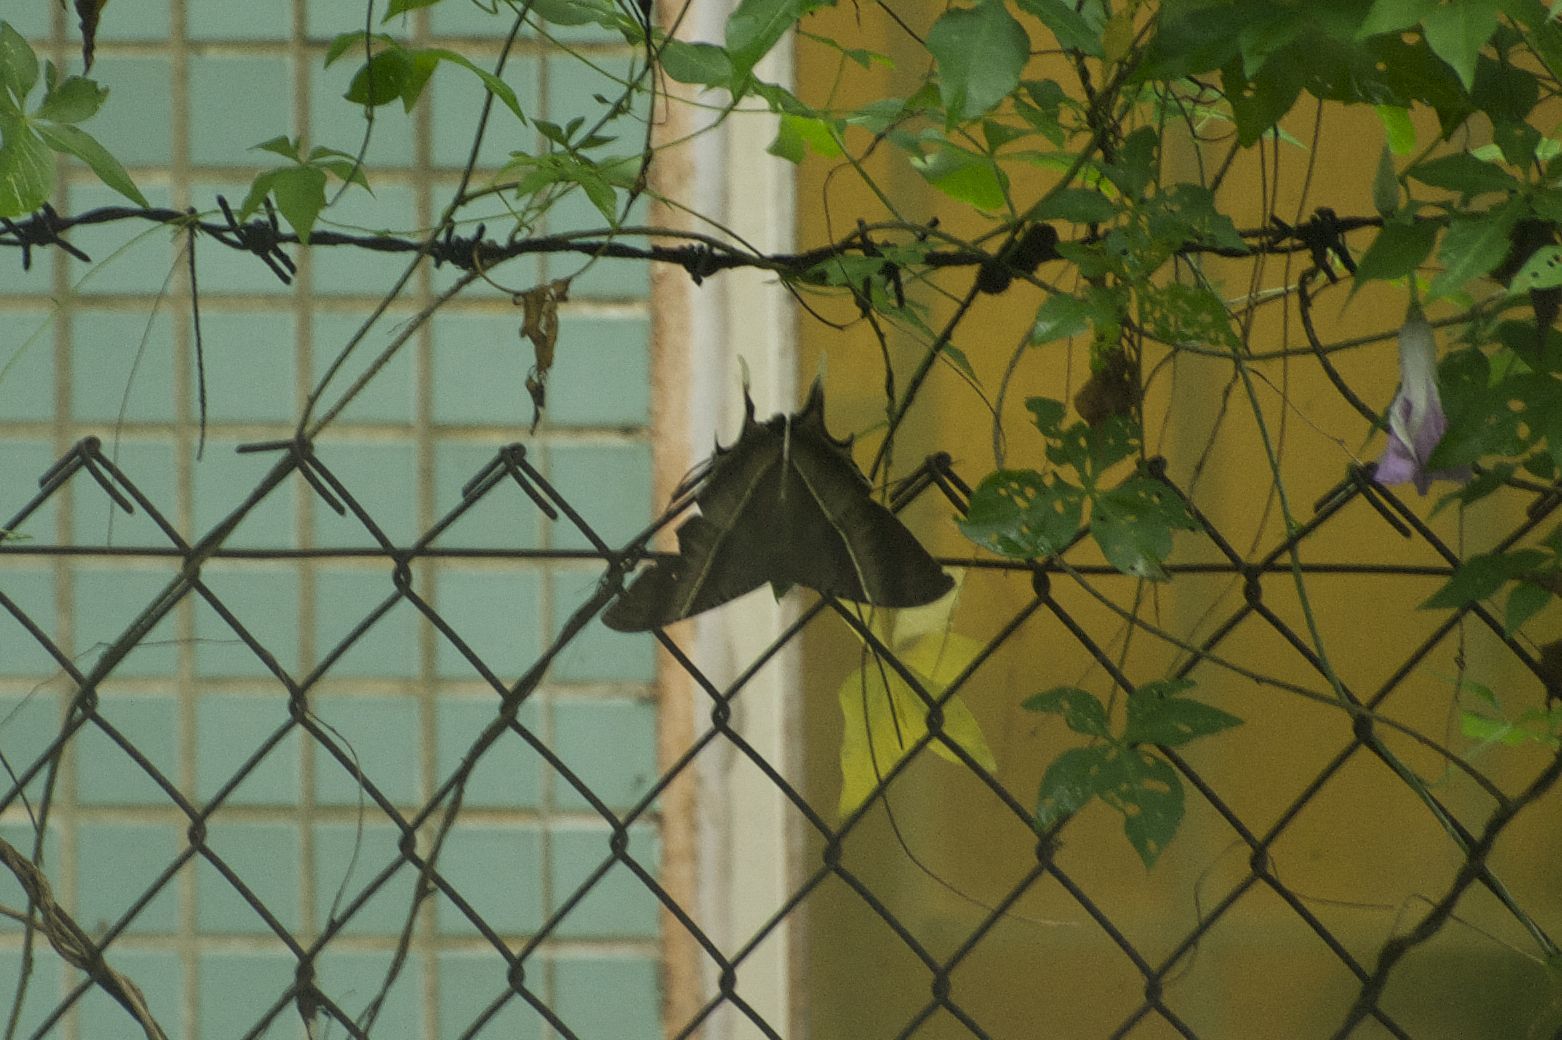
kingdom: Animalia
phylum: Arthropoda
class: Insecta
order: Lepidoptera
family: Uraniidae
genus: Lyssa
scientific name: Lyssa zampa
